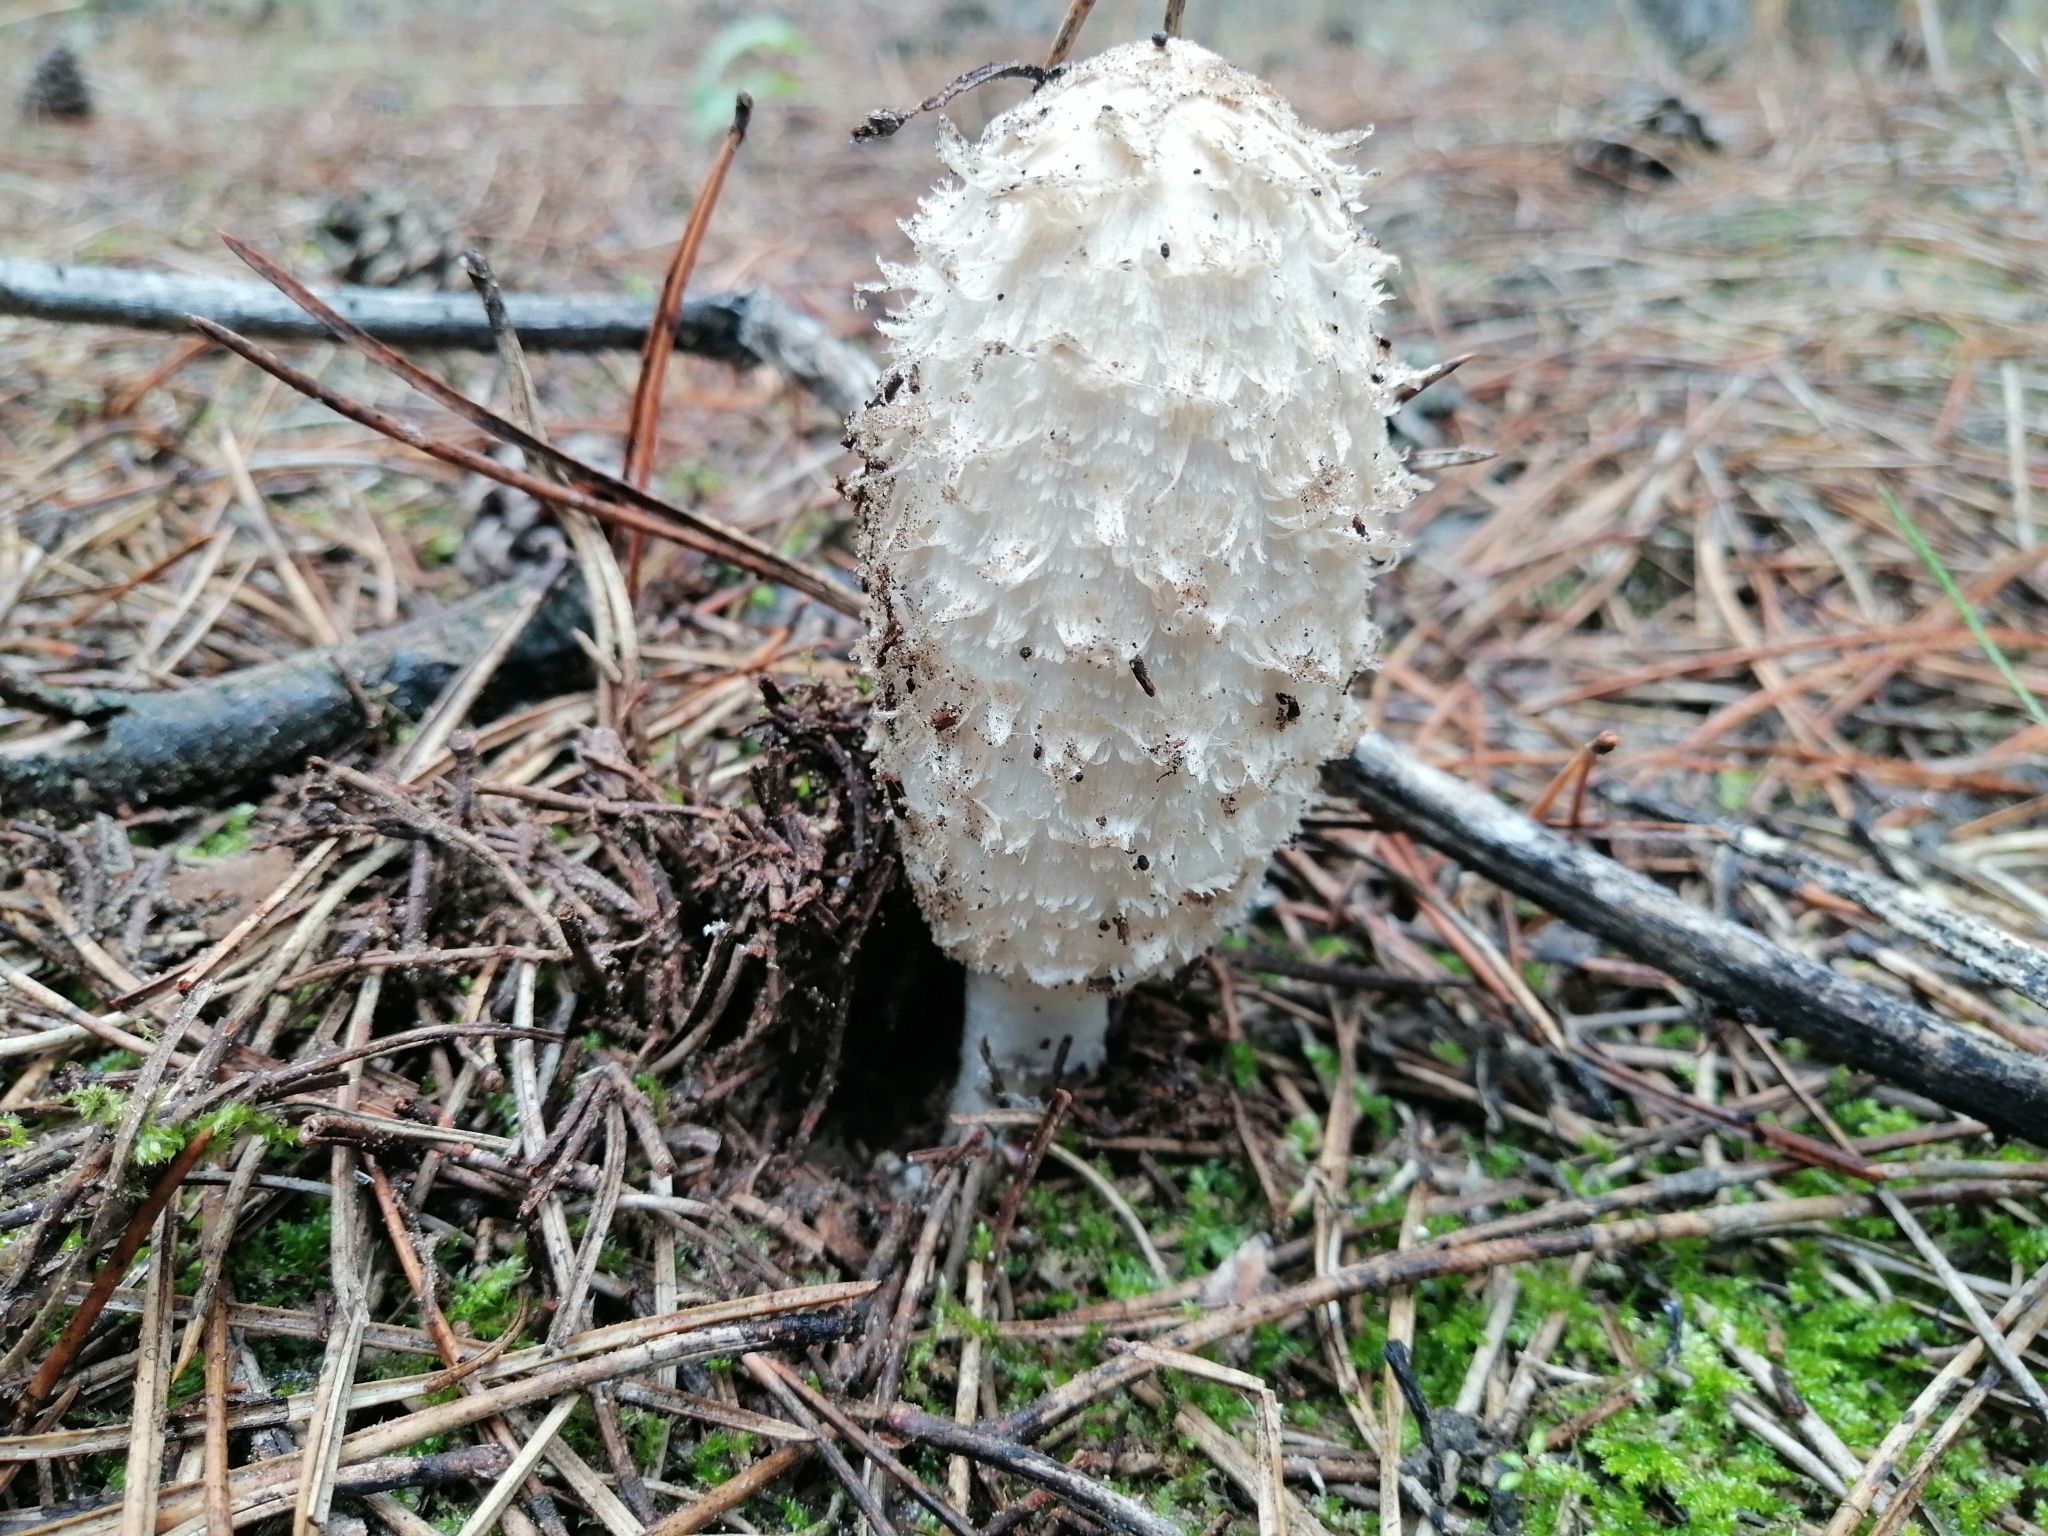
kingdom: Fungi
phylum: Basidiomycota
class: Agaricomycetes
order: Agaricales
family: Agaricaceae
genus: Coprinus
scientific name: Coprinus comatus
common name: Lawyer's wig
